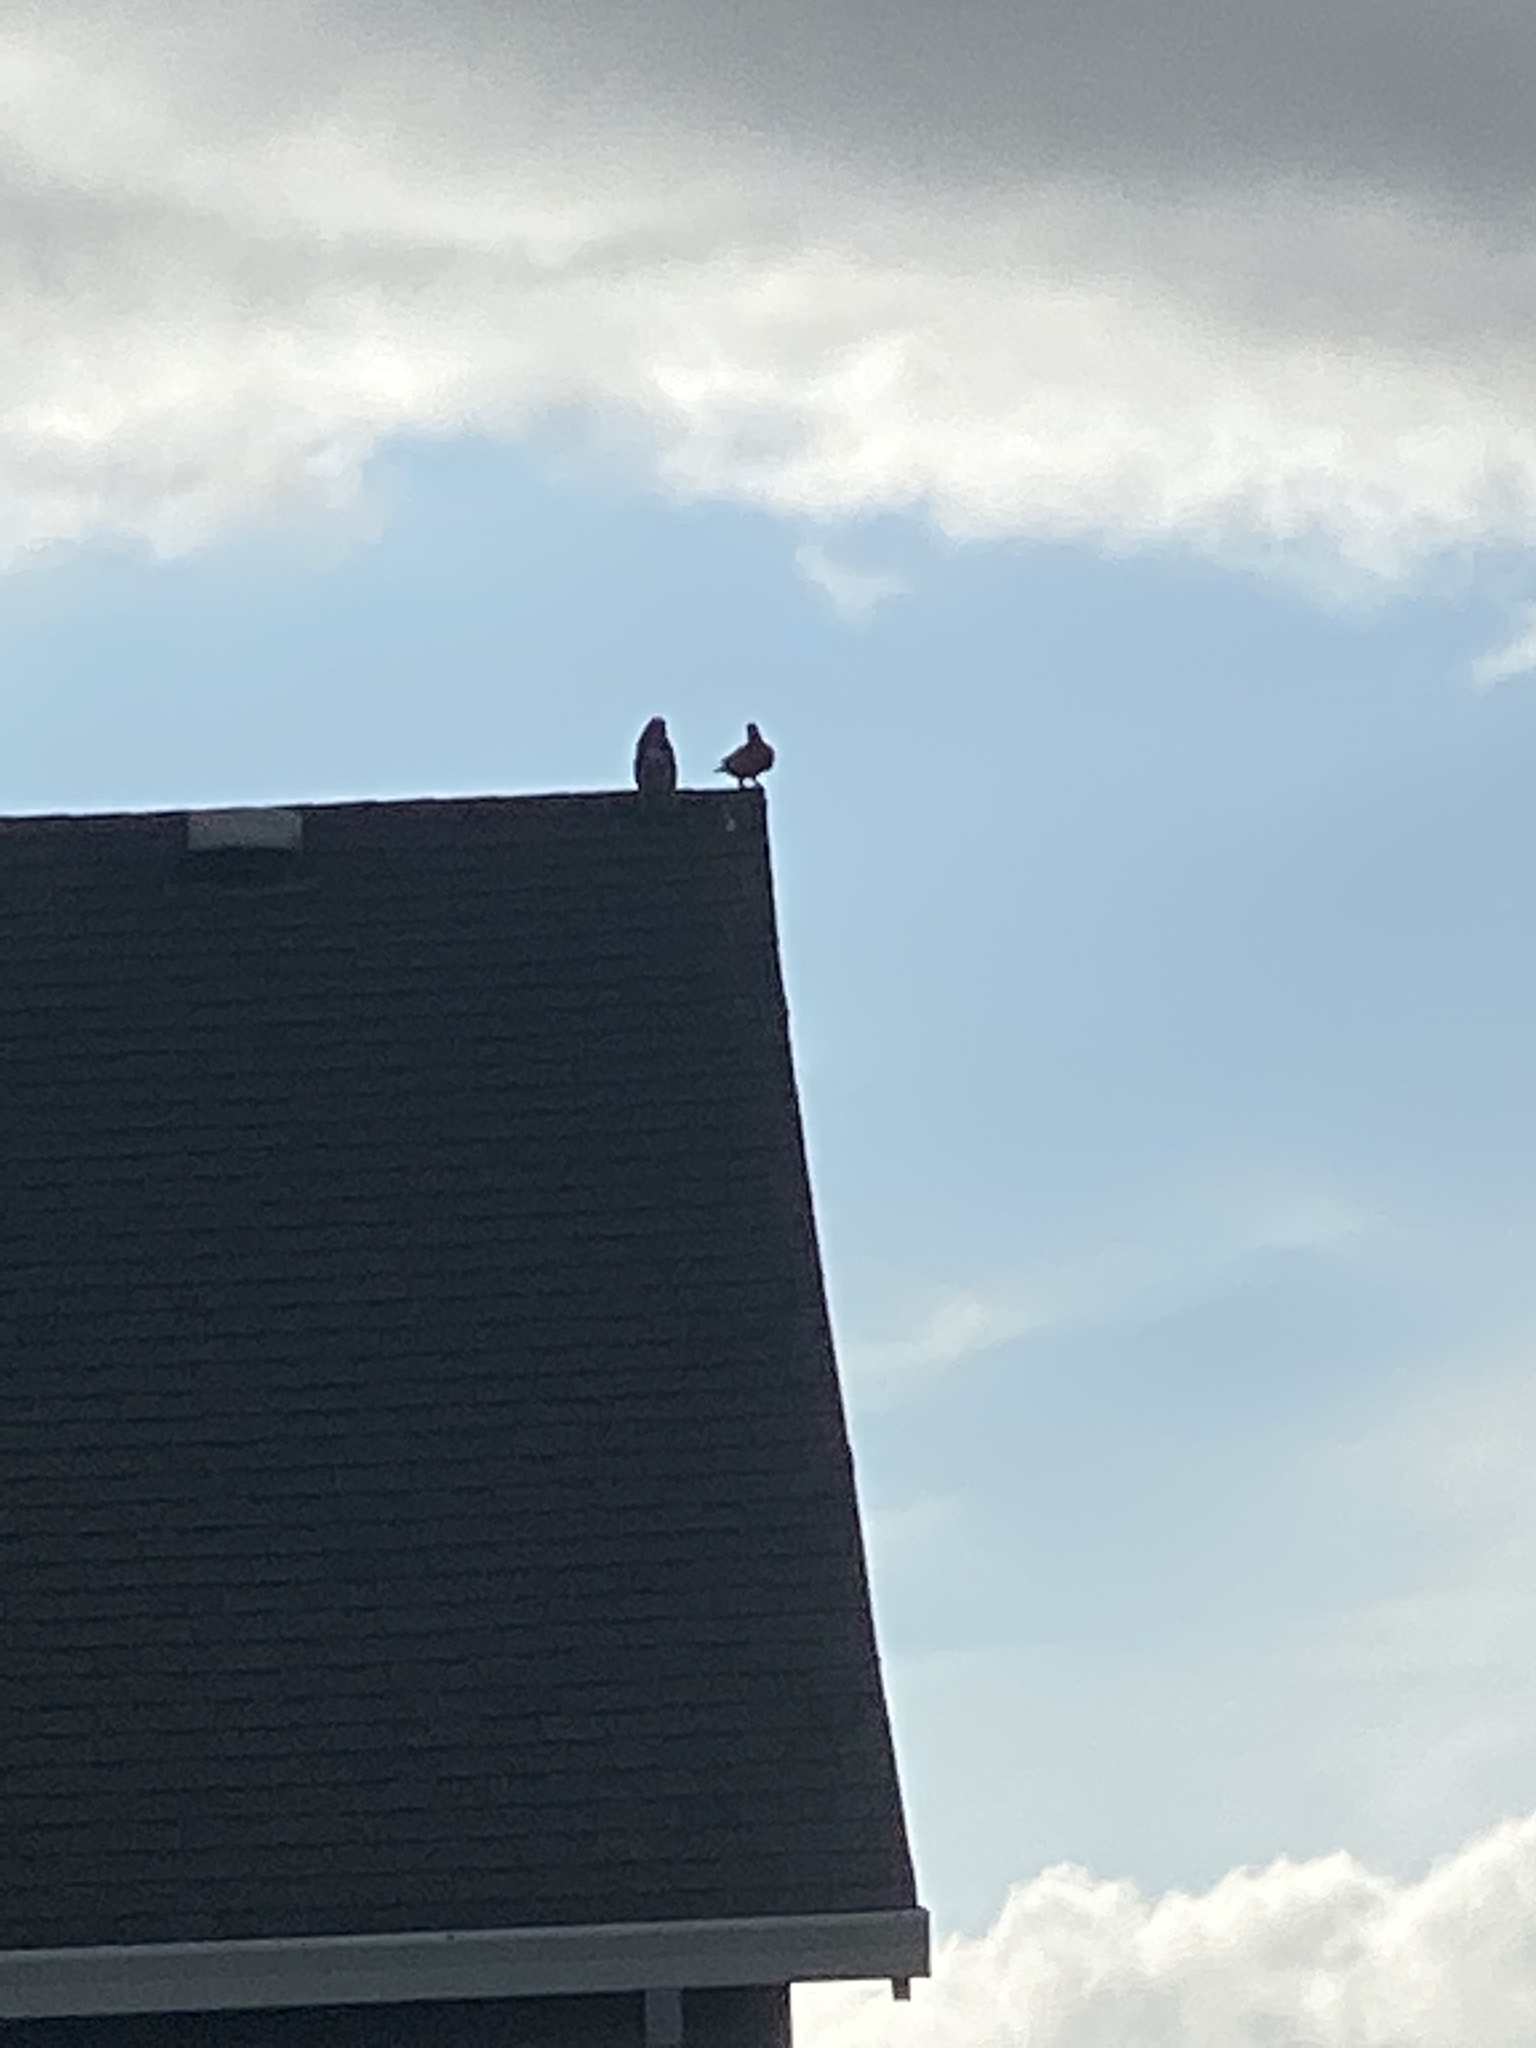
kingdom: Animalia
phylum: Chordata
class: Aves
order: Columbiformes
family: Columbidae
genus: Columba
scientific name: Columba livia
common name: Rock pigeon
